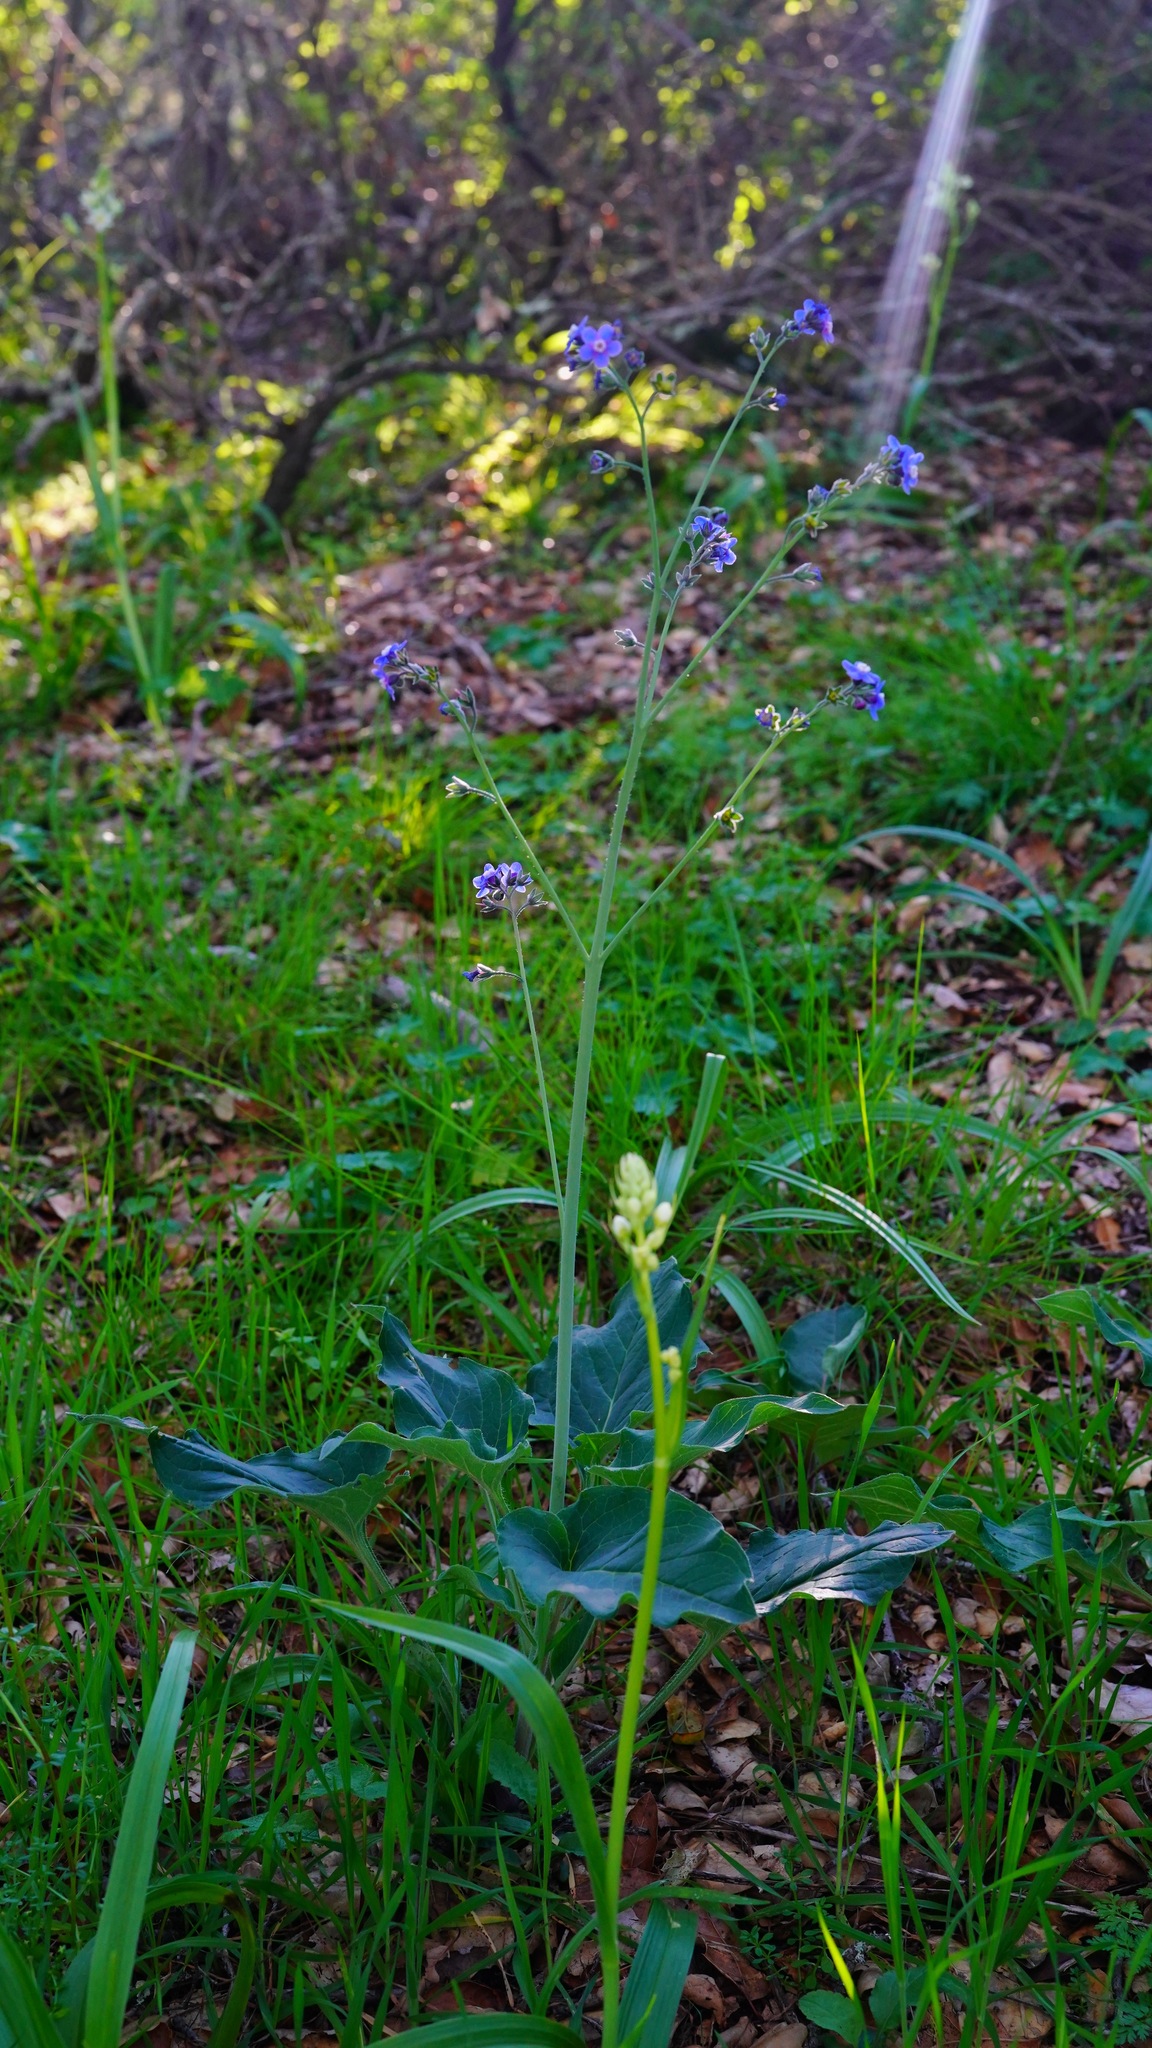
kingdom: Plantae
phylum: Tracheophyta
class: Magnoliopsida
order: Boraginales
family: Boraginaceae
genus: Adelinia
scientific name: Adelinia grande
